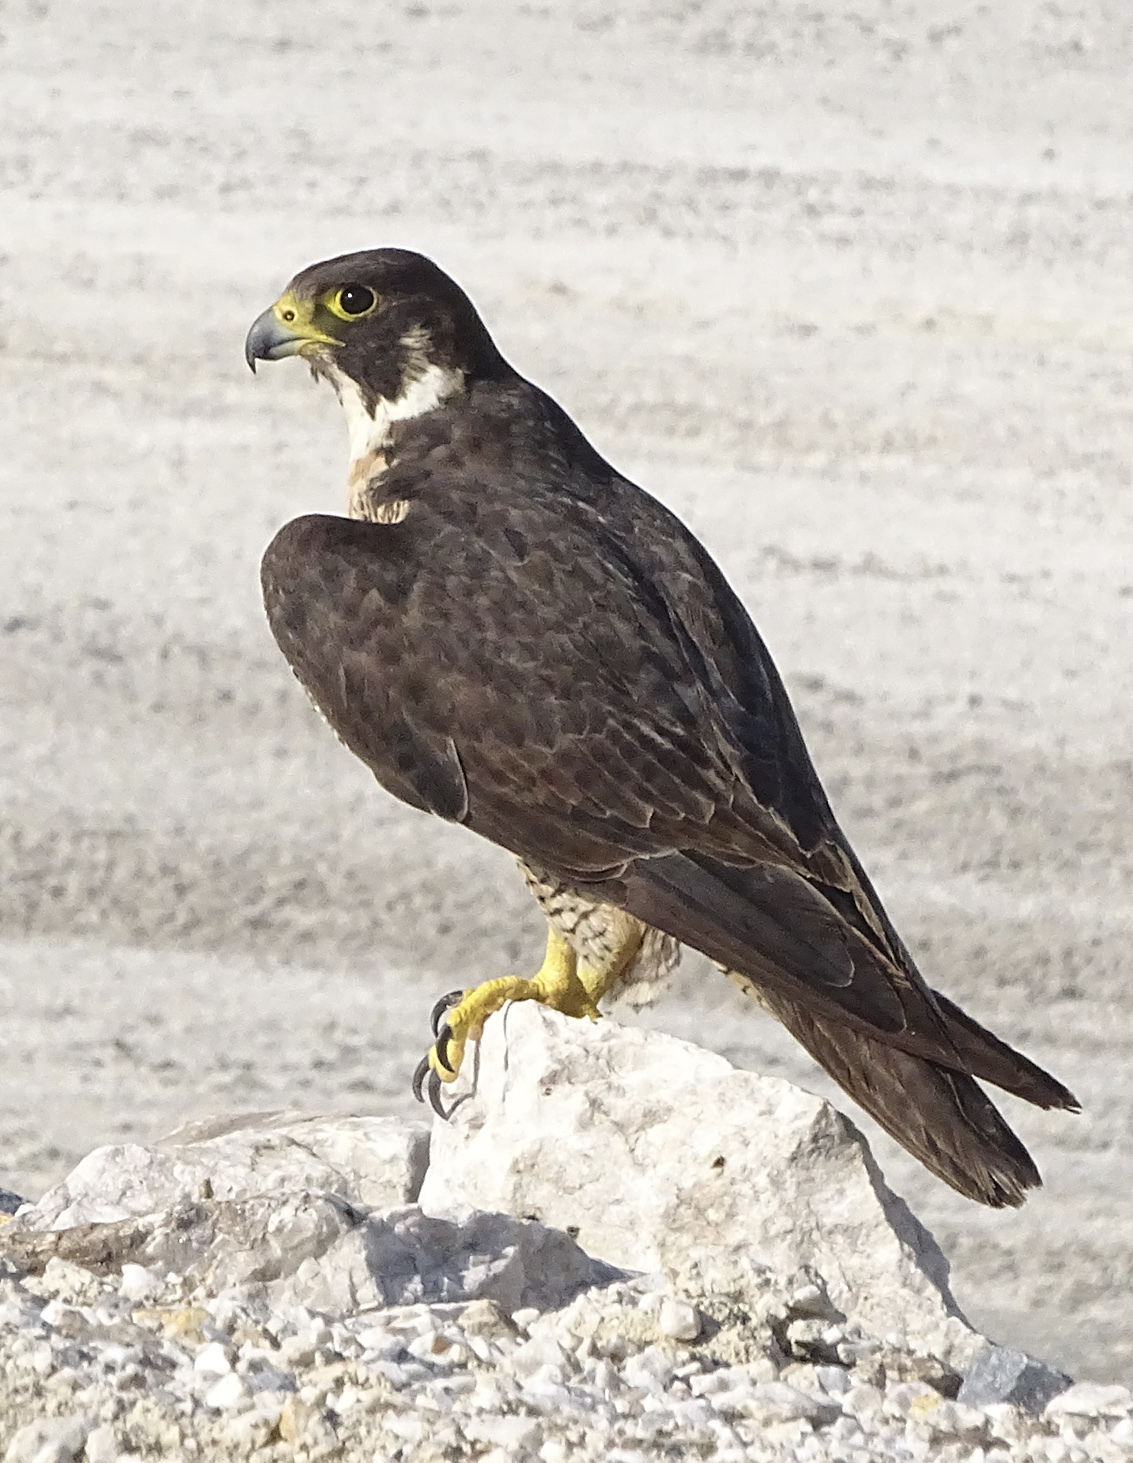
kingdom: Animalia
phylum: Chordata
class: Aves
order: Falconiformes
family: Falconidae
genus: Falco
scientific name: Falco peregrinus
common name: Peregrine falcon
